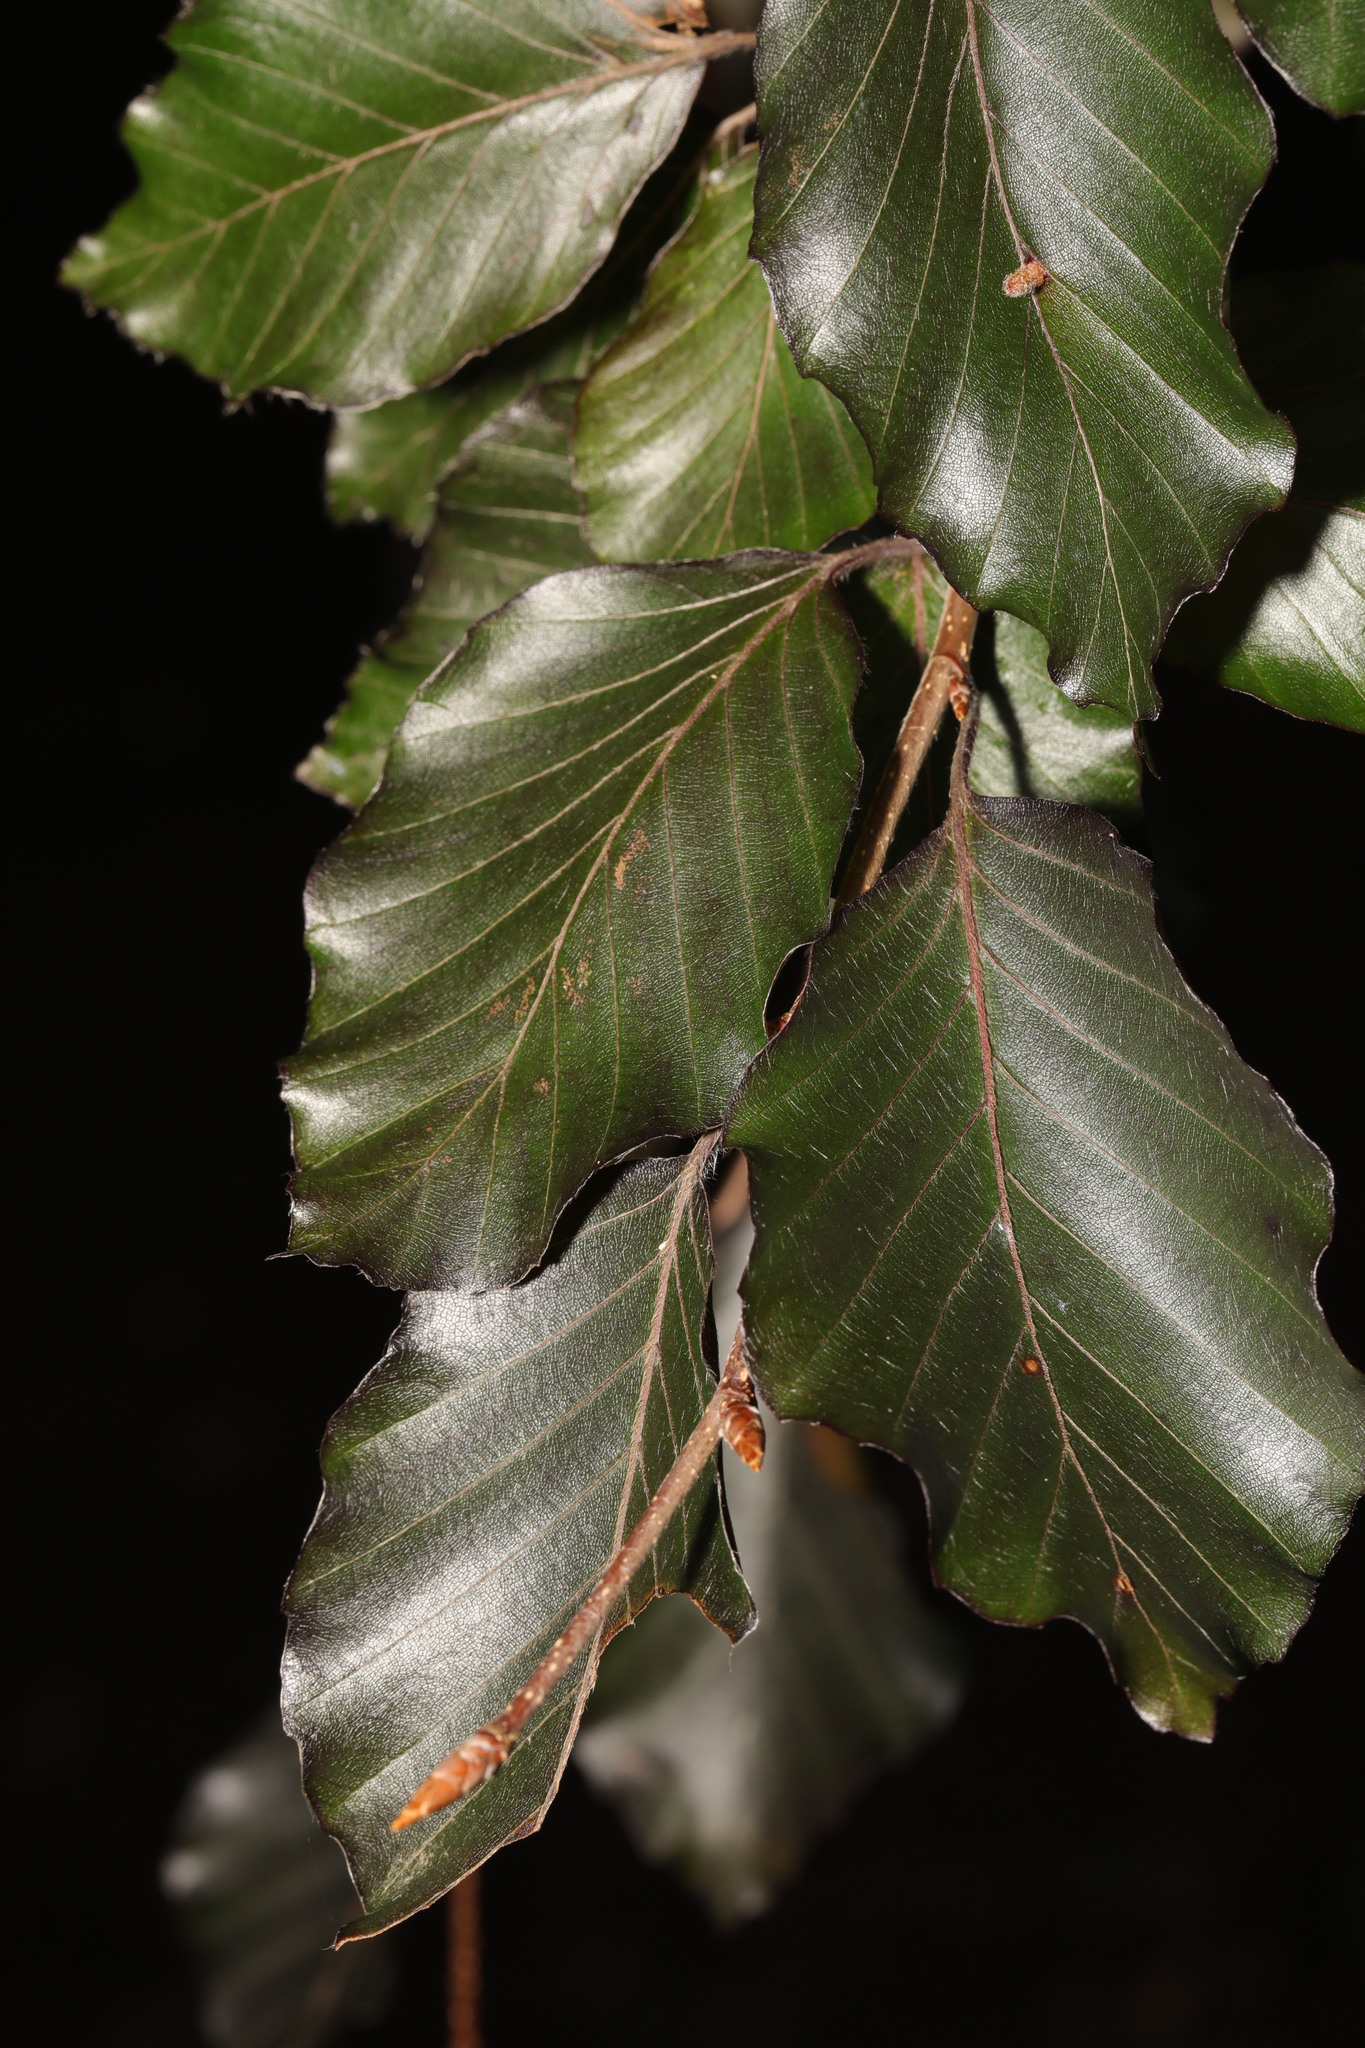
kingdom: Plantae
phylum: Tracheophyta
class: Magnoliopsida
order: Fagales
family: Fagaceae
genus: Fagus
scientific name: Fagus sylvatica
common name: Beech
